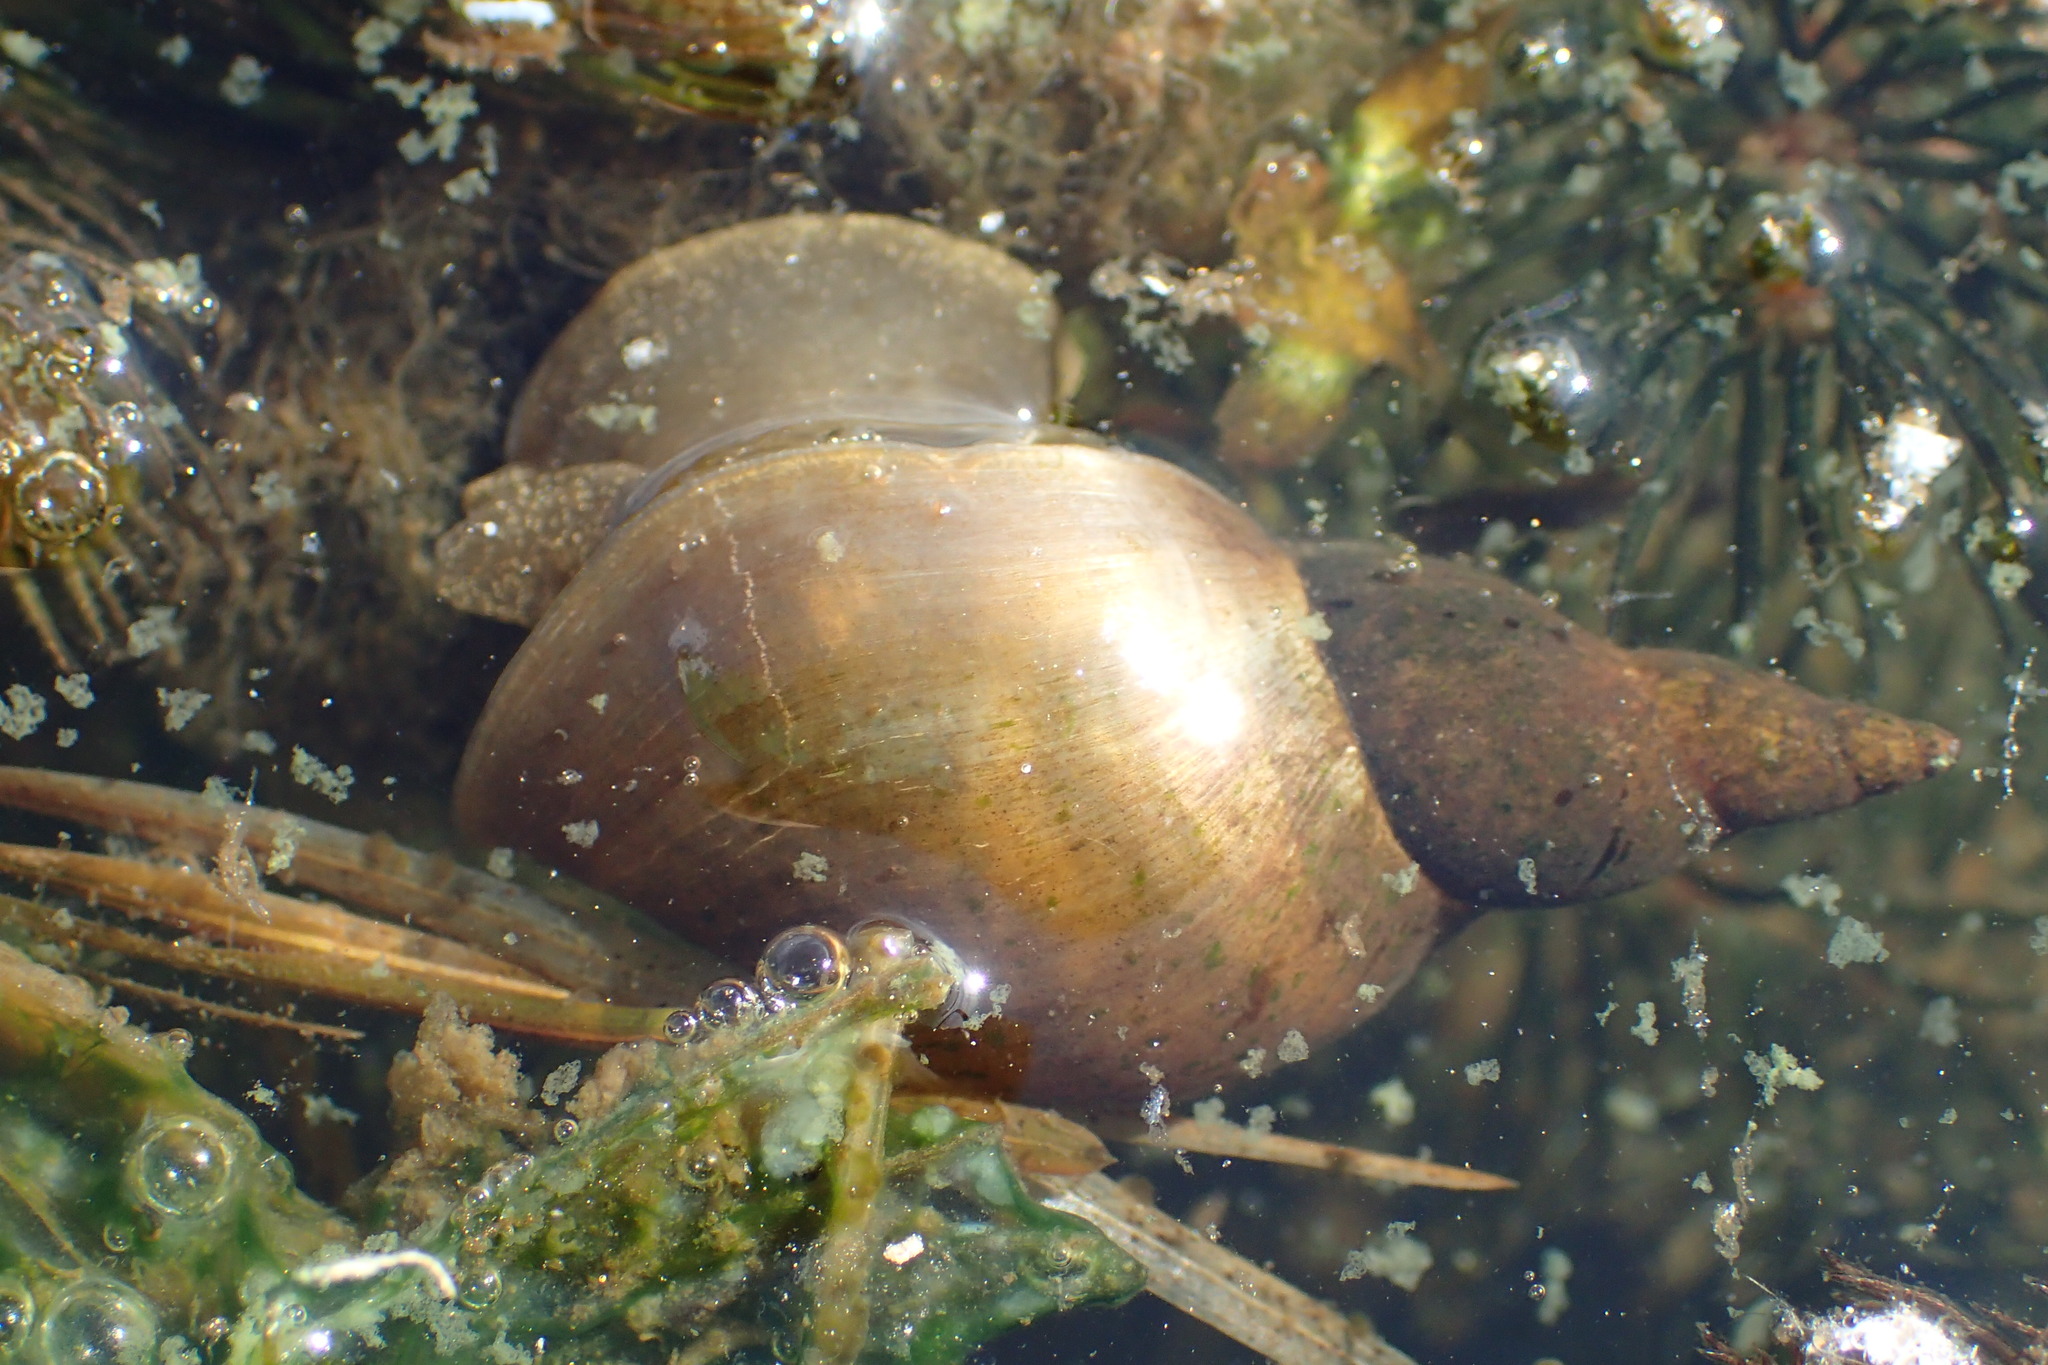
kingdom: Animalia
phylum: Mollusca
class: Gastropoda
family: Lymnaeidae
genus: Lymnaea
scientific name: Lymnaea stagnalis
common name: Great pond snail
